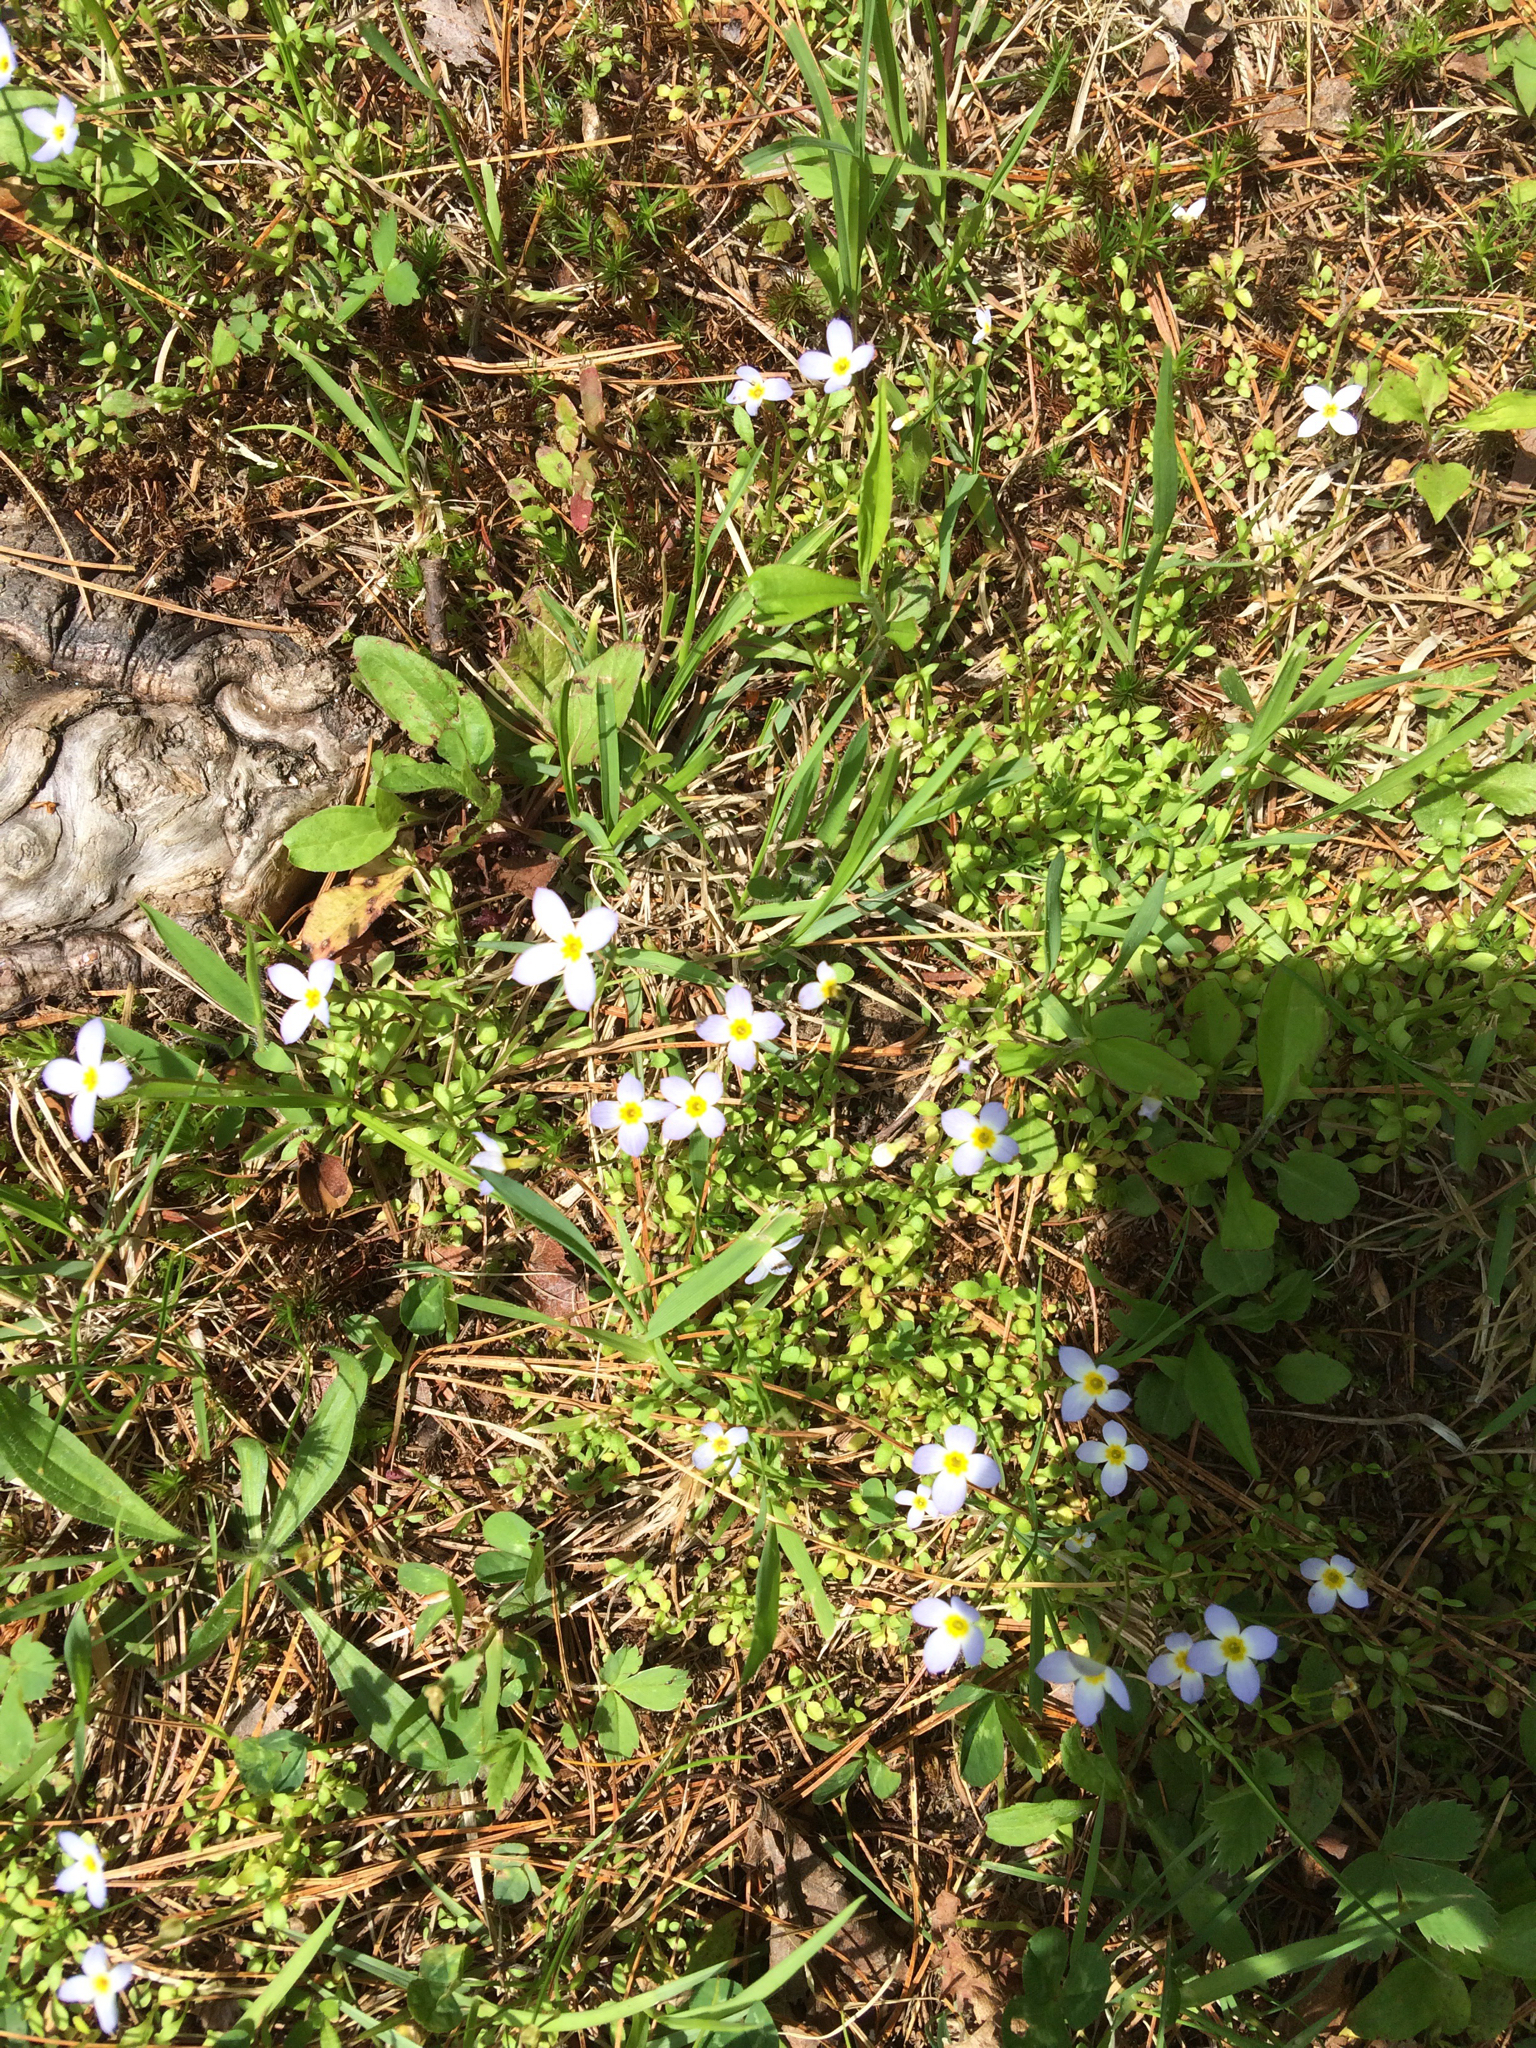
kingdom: Plantae
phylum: Tracheophyta
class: Magnoliopsida
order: Gentianales
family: Rubiaceae
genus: Houstonia
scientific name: Houstonia caerulea
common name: Bluets
